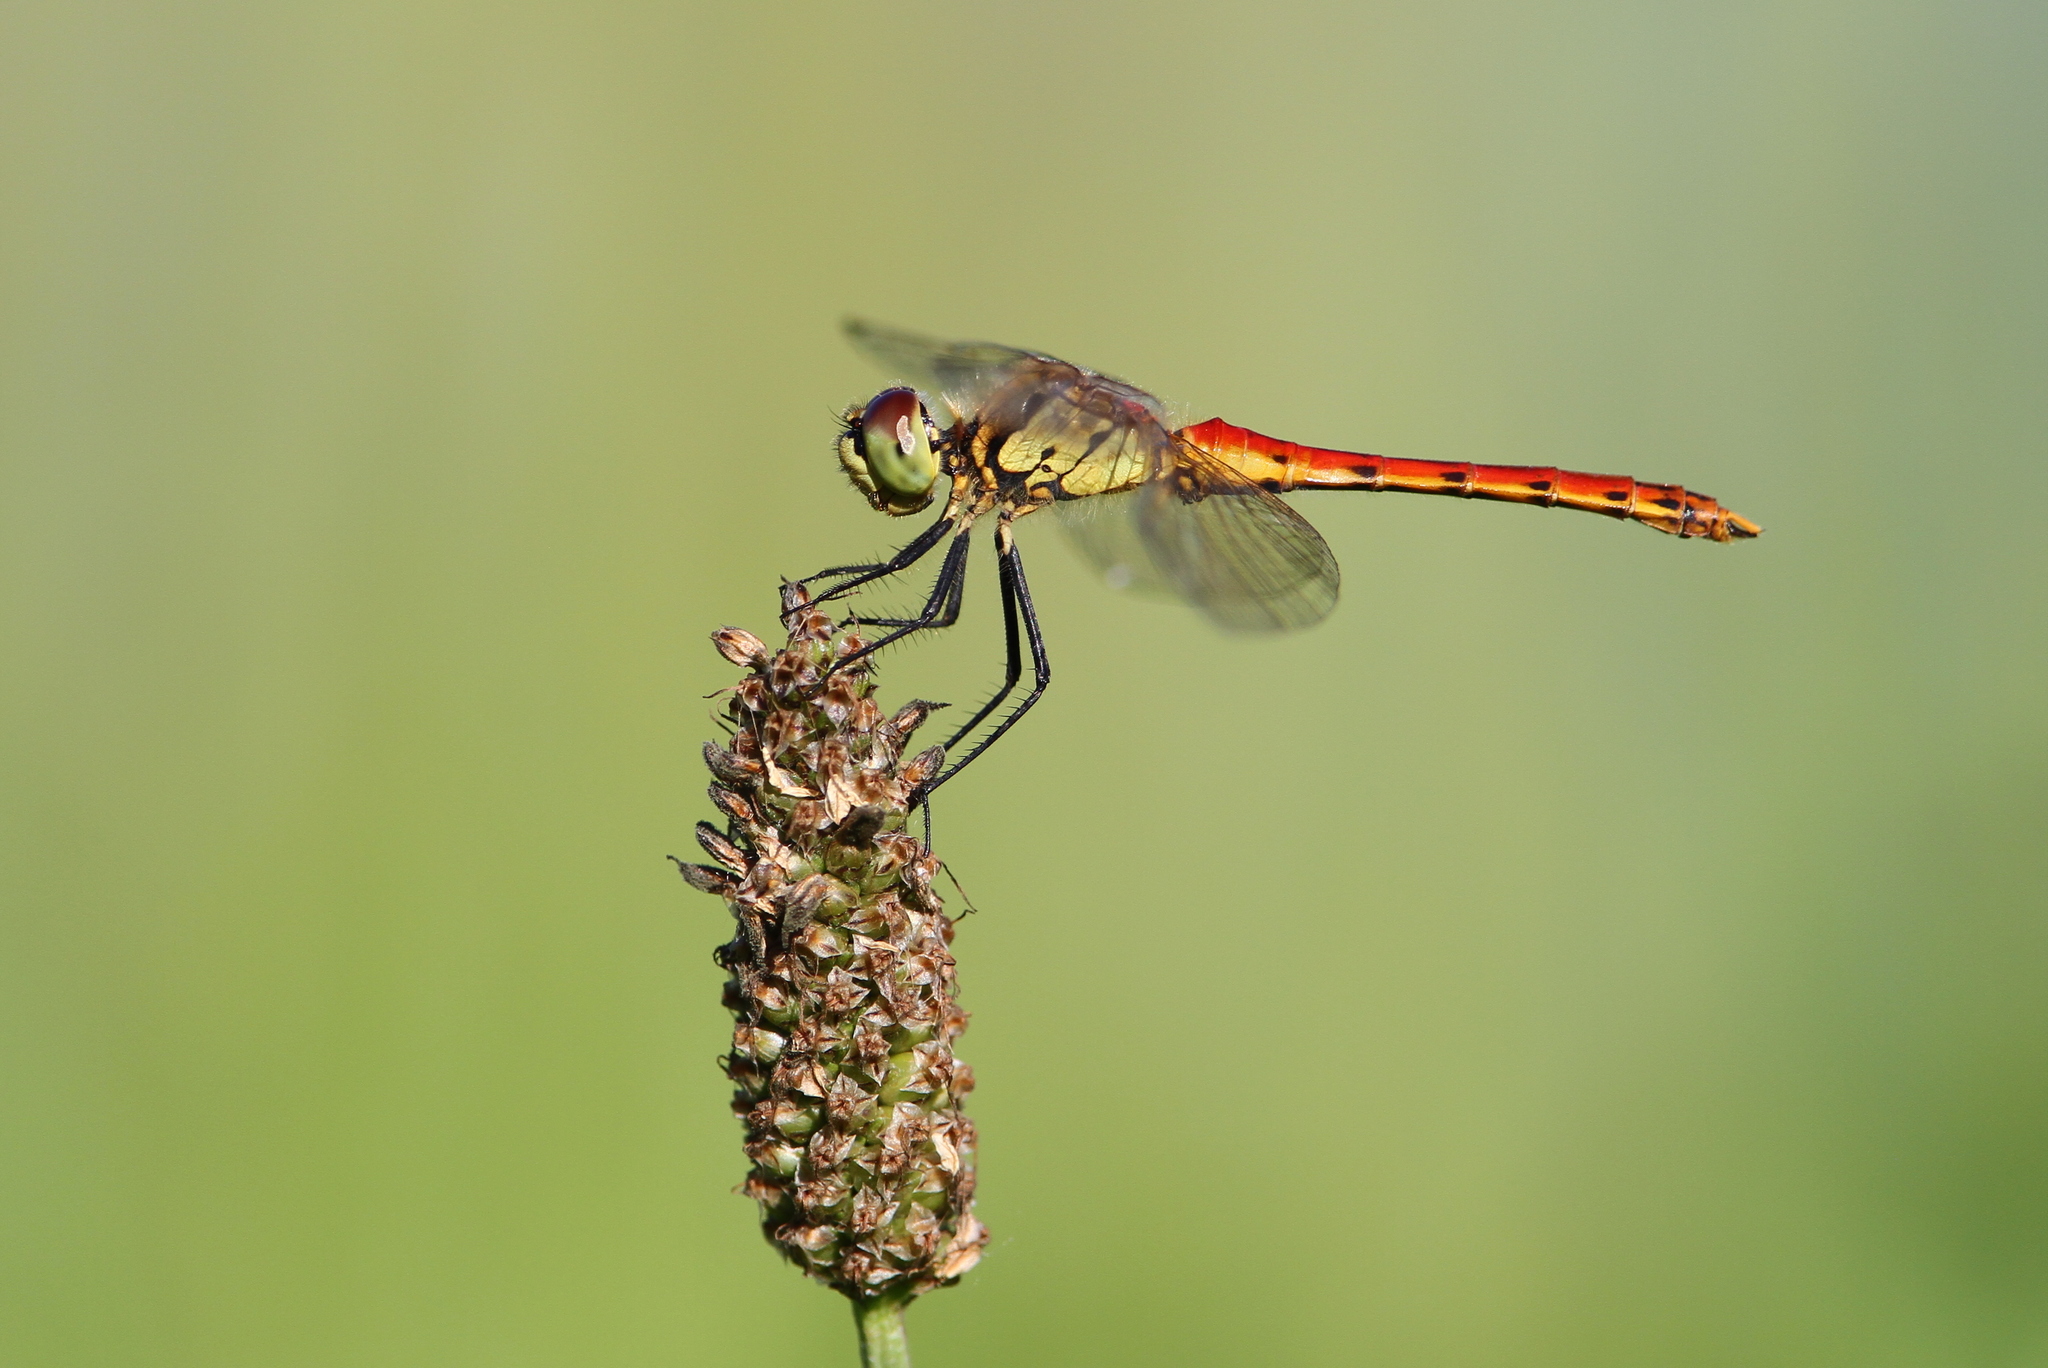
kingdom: Animalia
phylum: Arthropoda
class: Insecta
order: Odonata
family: Libellulidae
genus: Sympetrum
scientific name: Sympetrum depressiusculum
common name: Spotted darter
